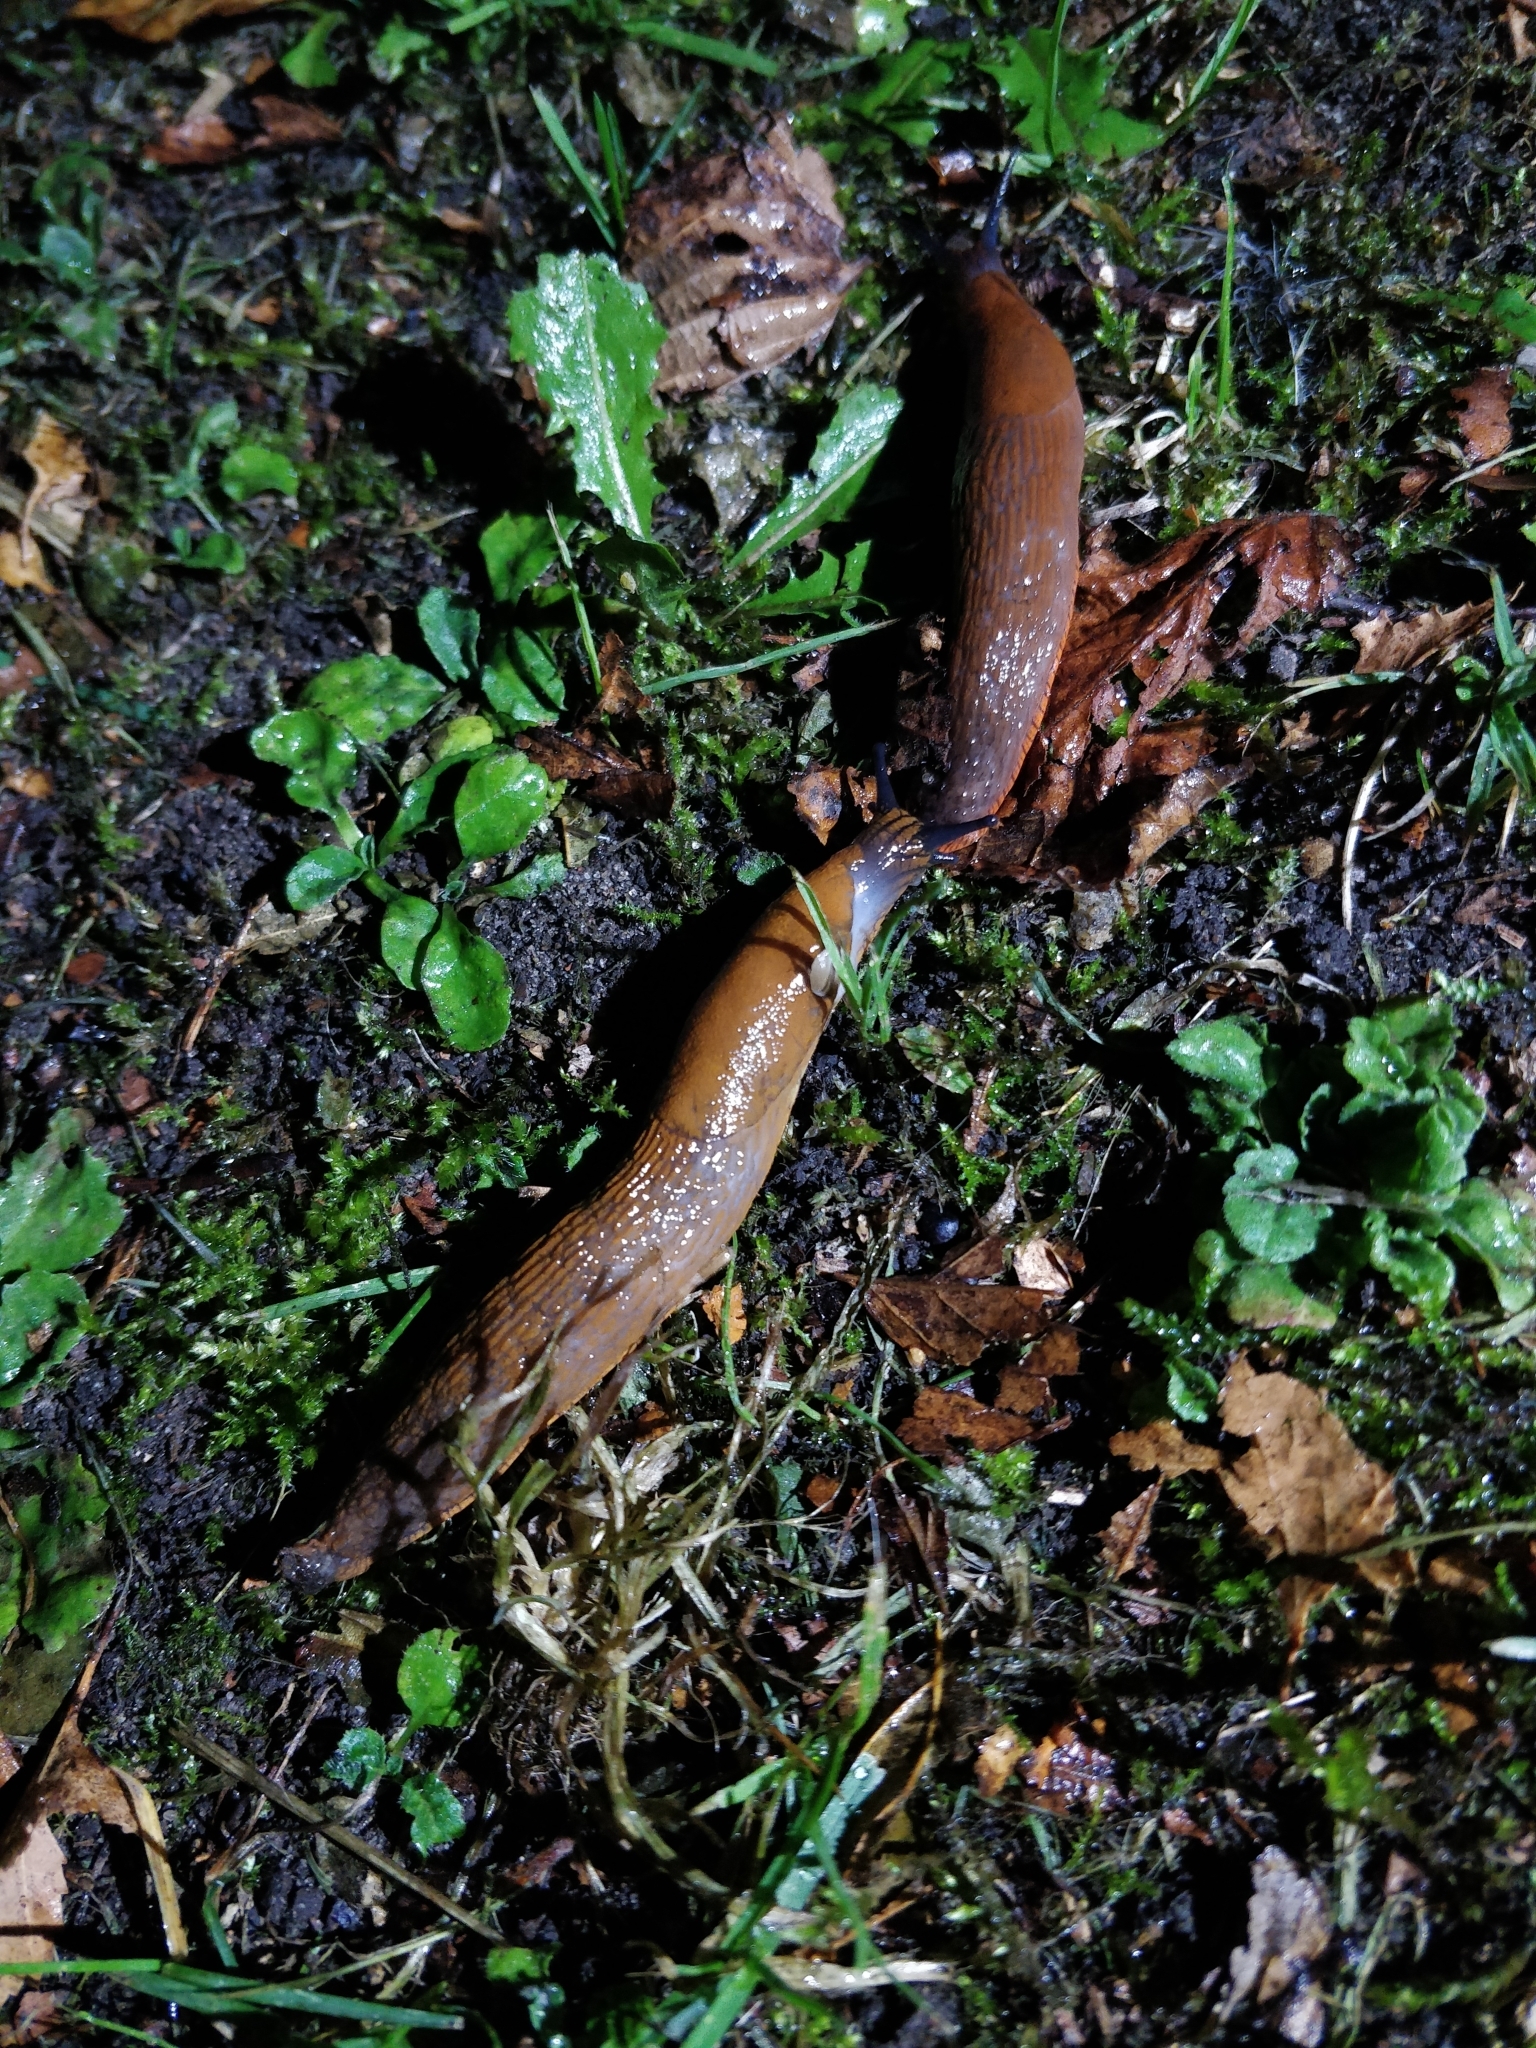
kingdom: Animalia
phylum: Mollusca
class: Gastropoda
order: Stylommatophora
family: Arionidae
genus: Arion
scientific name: Arion vulgaris
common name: Lusitanian slug
